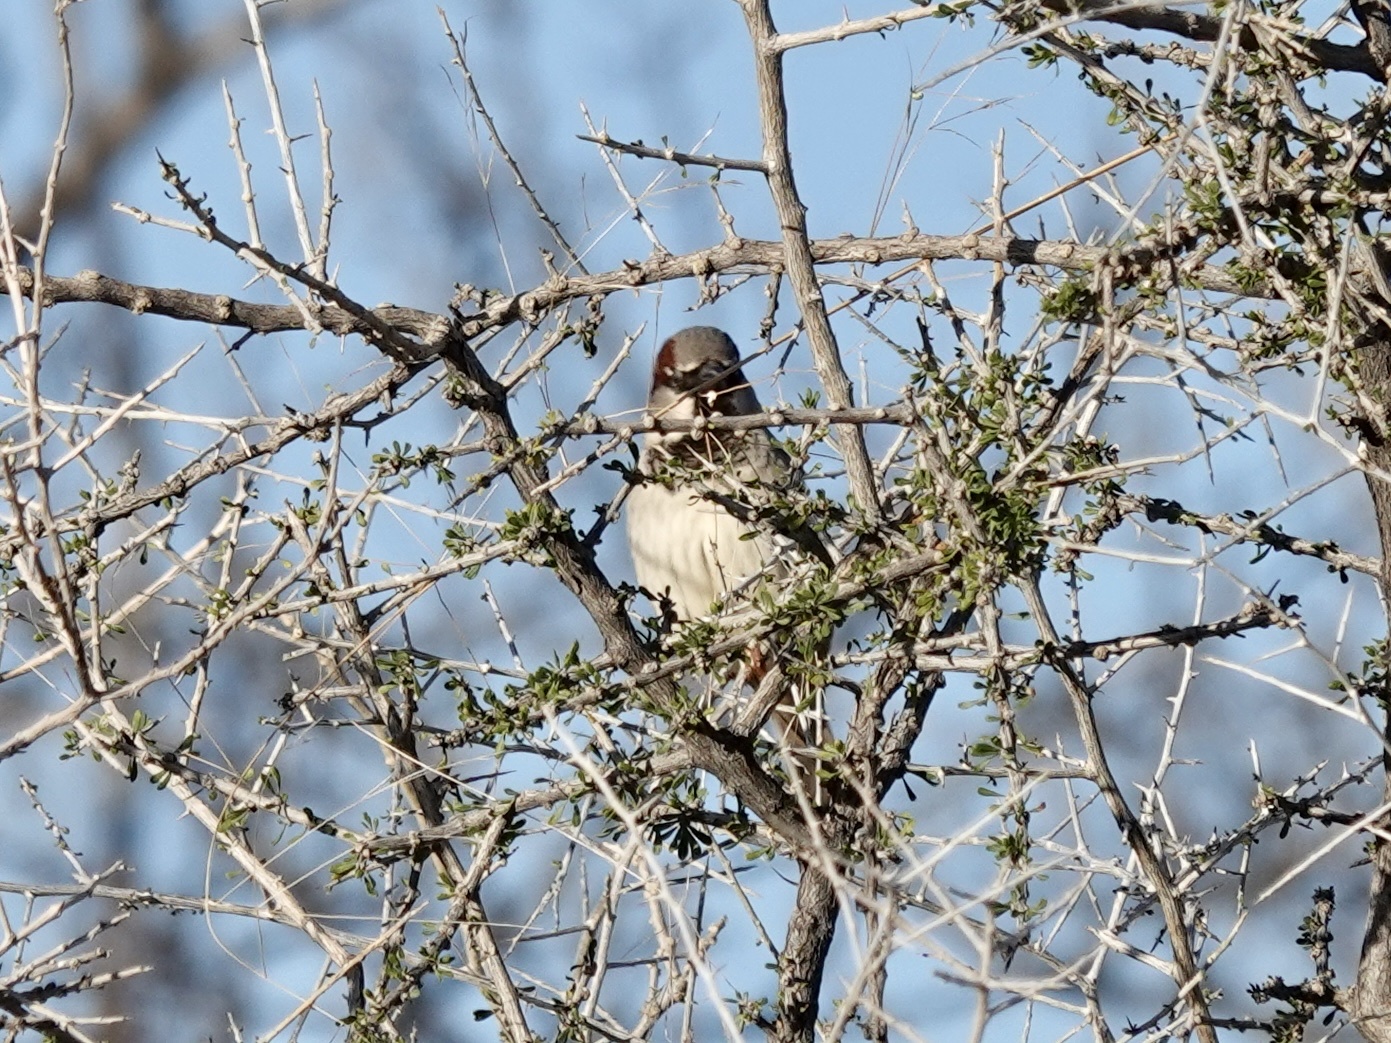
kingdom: Animalia
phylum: Chordata
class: Aves
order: Passeriformes
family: Passeridae
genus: Passer
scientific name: Passer domesticus
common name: House sparrow
